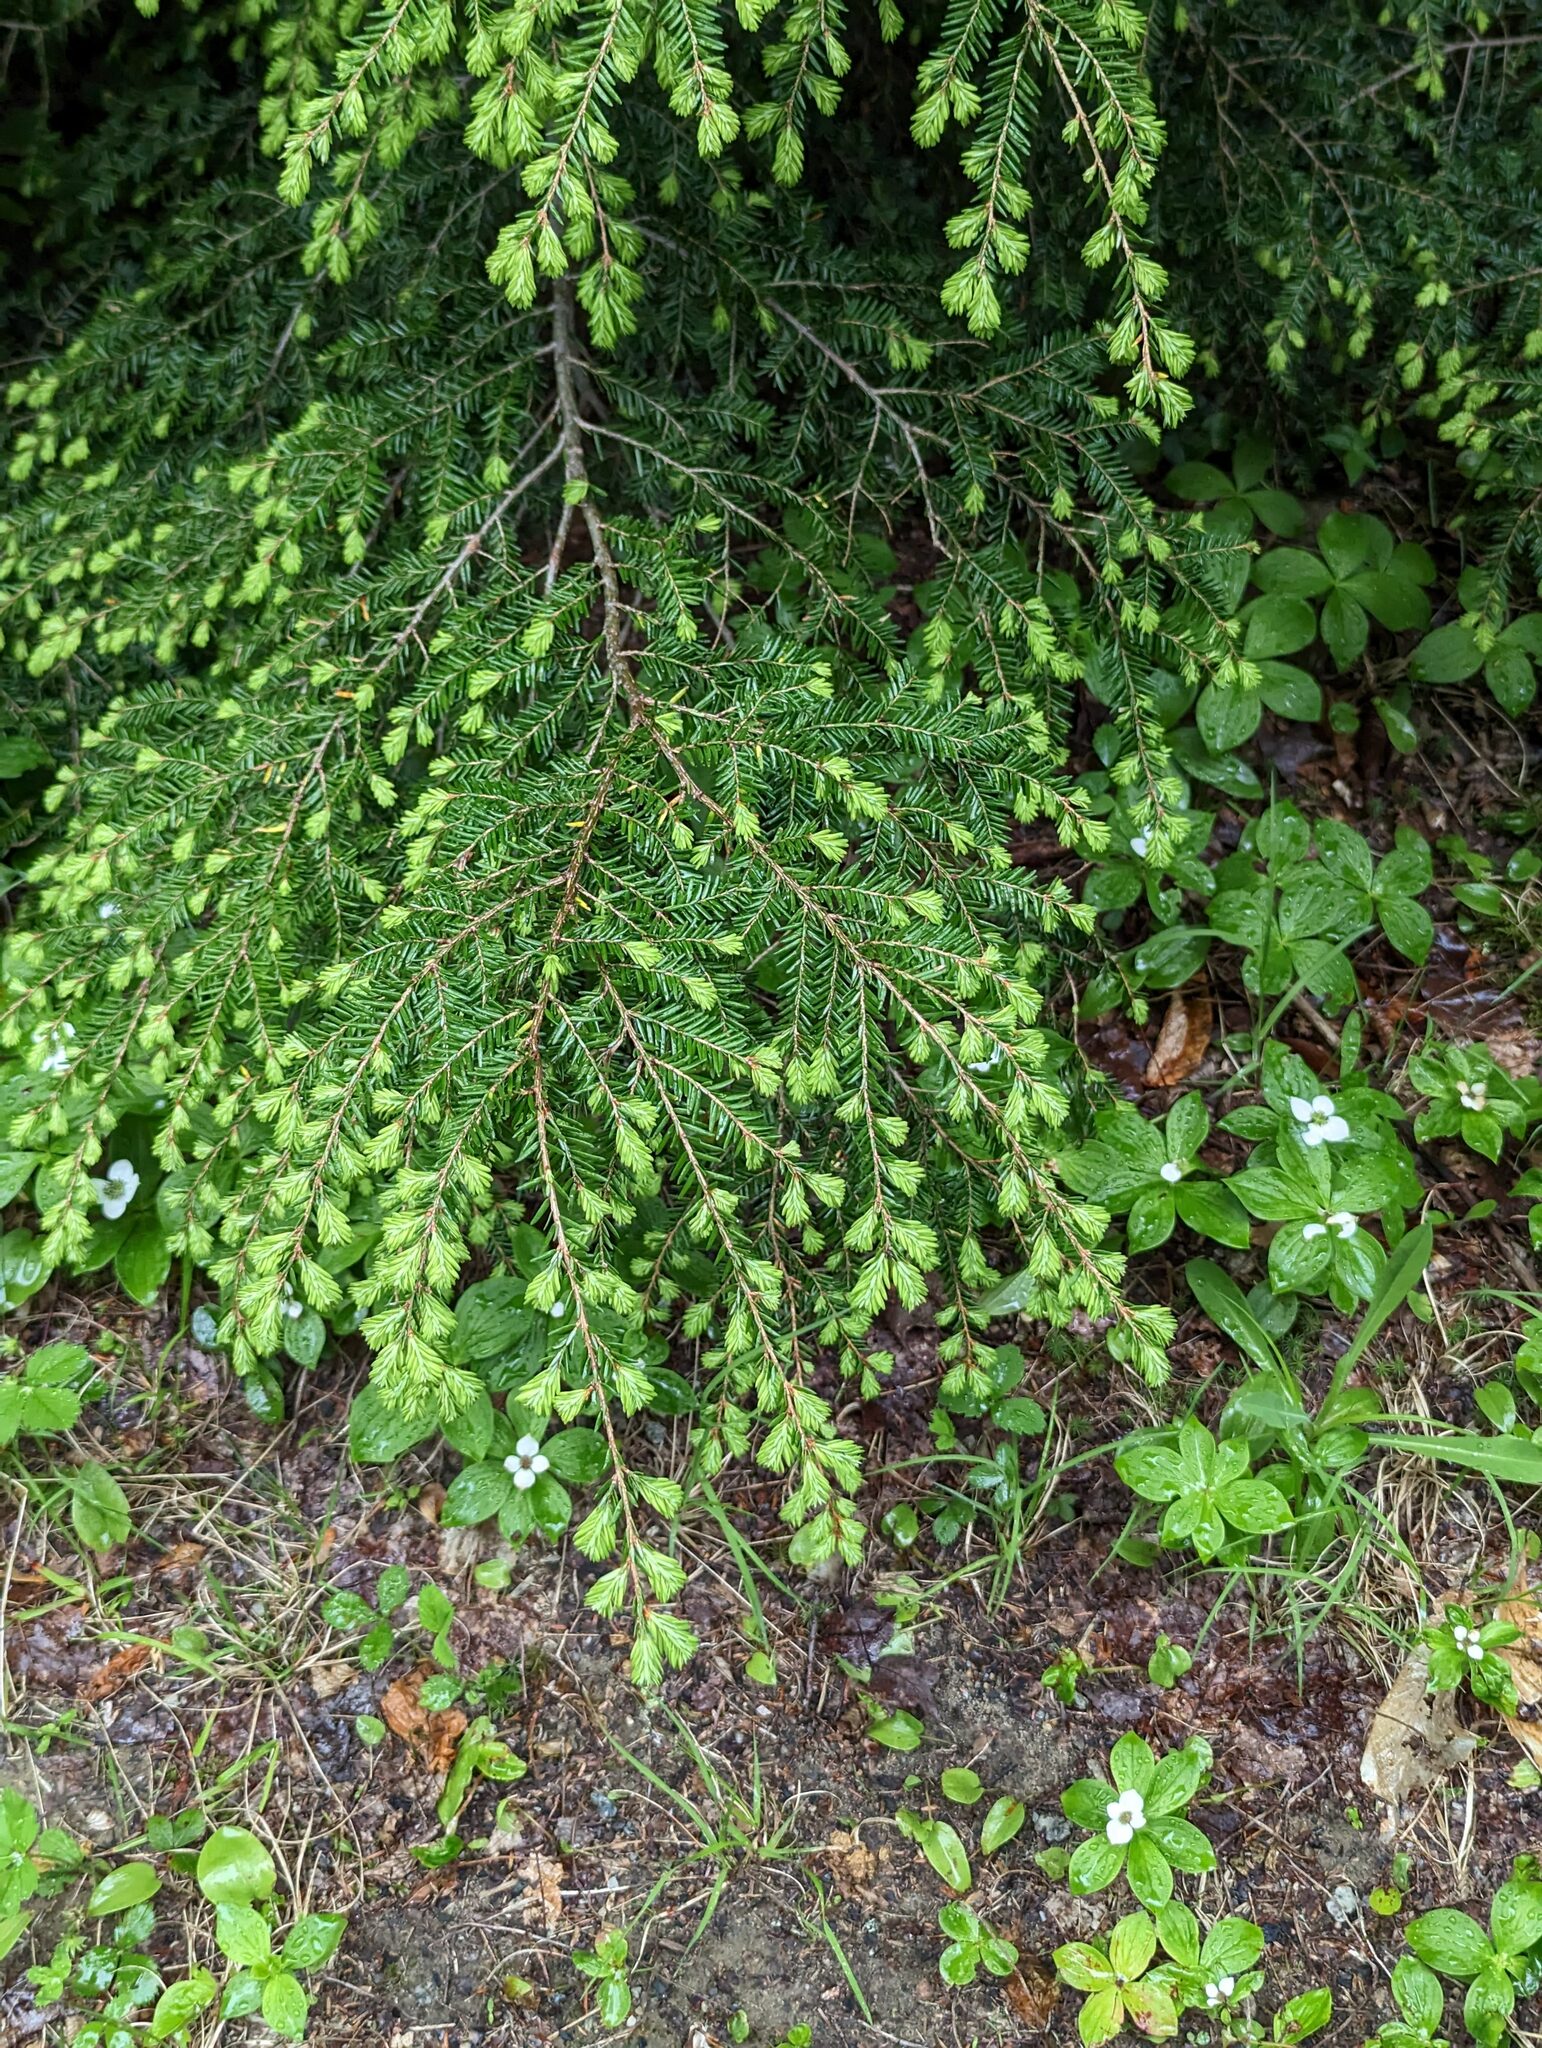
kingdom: Plantae
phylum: Tracheophyta
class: Pinopsida
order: Pinales
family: Pinaceae
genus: Tsuga
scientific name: Tsuga canadensis
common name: Eastern hemlock
